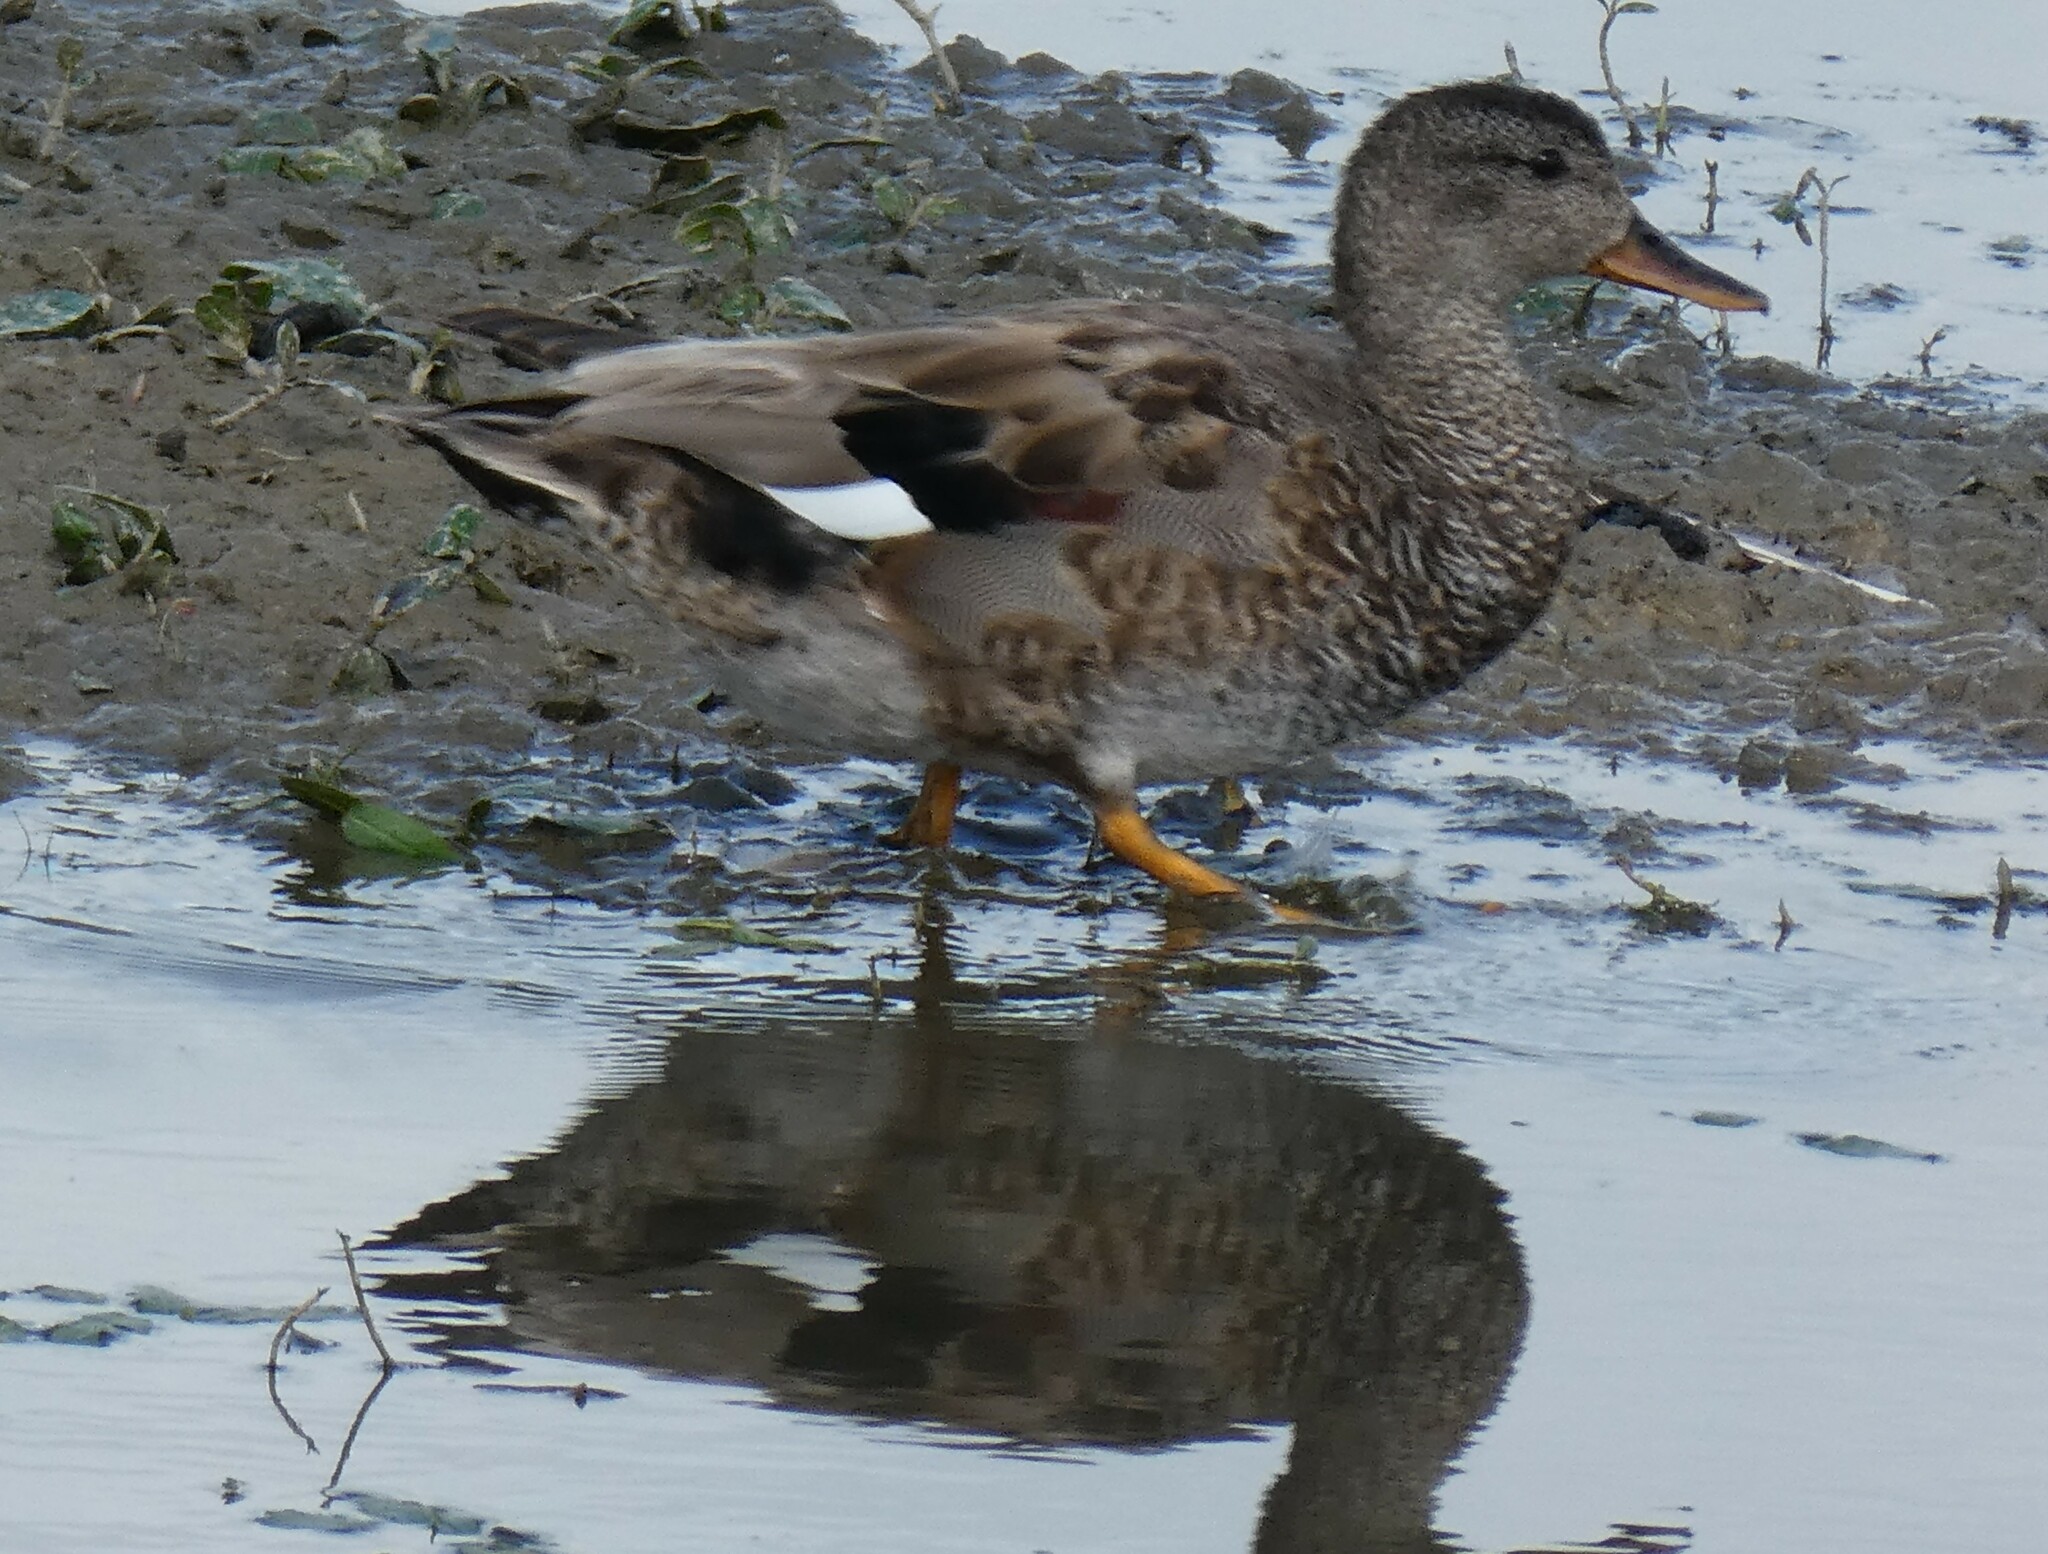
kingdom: Animalia
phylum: Chordata
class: Aves
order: Anseriformes
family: Anatidae
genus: Mareca
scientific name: Mareca strepera
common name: Gadwall
